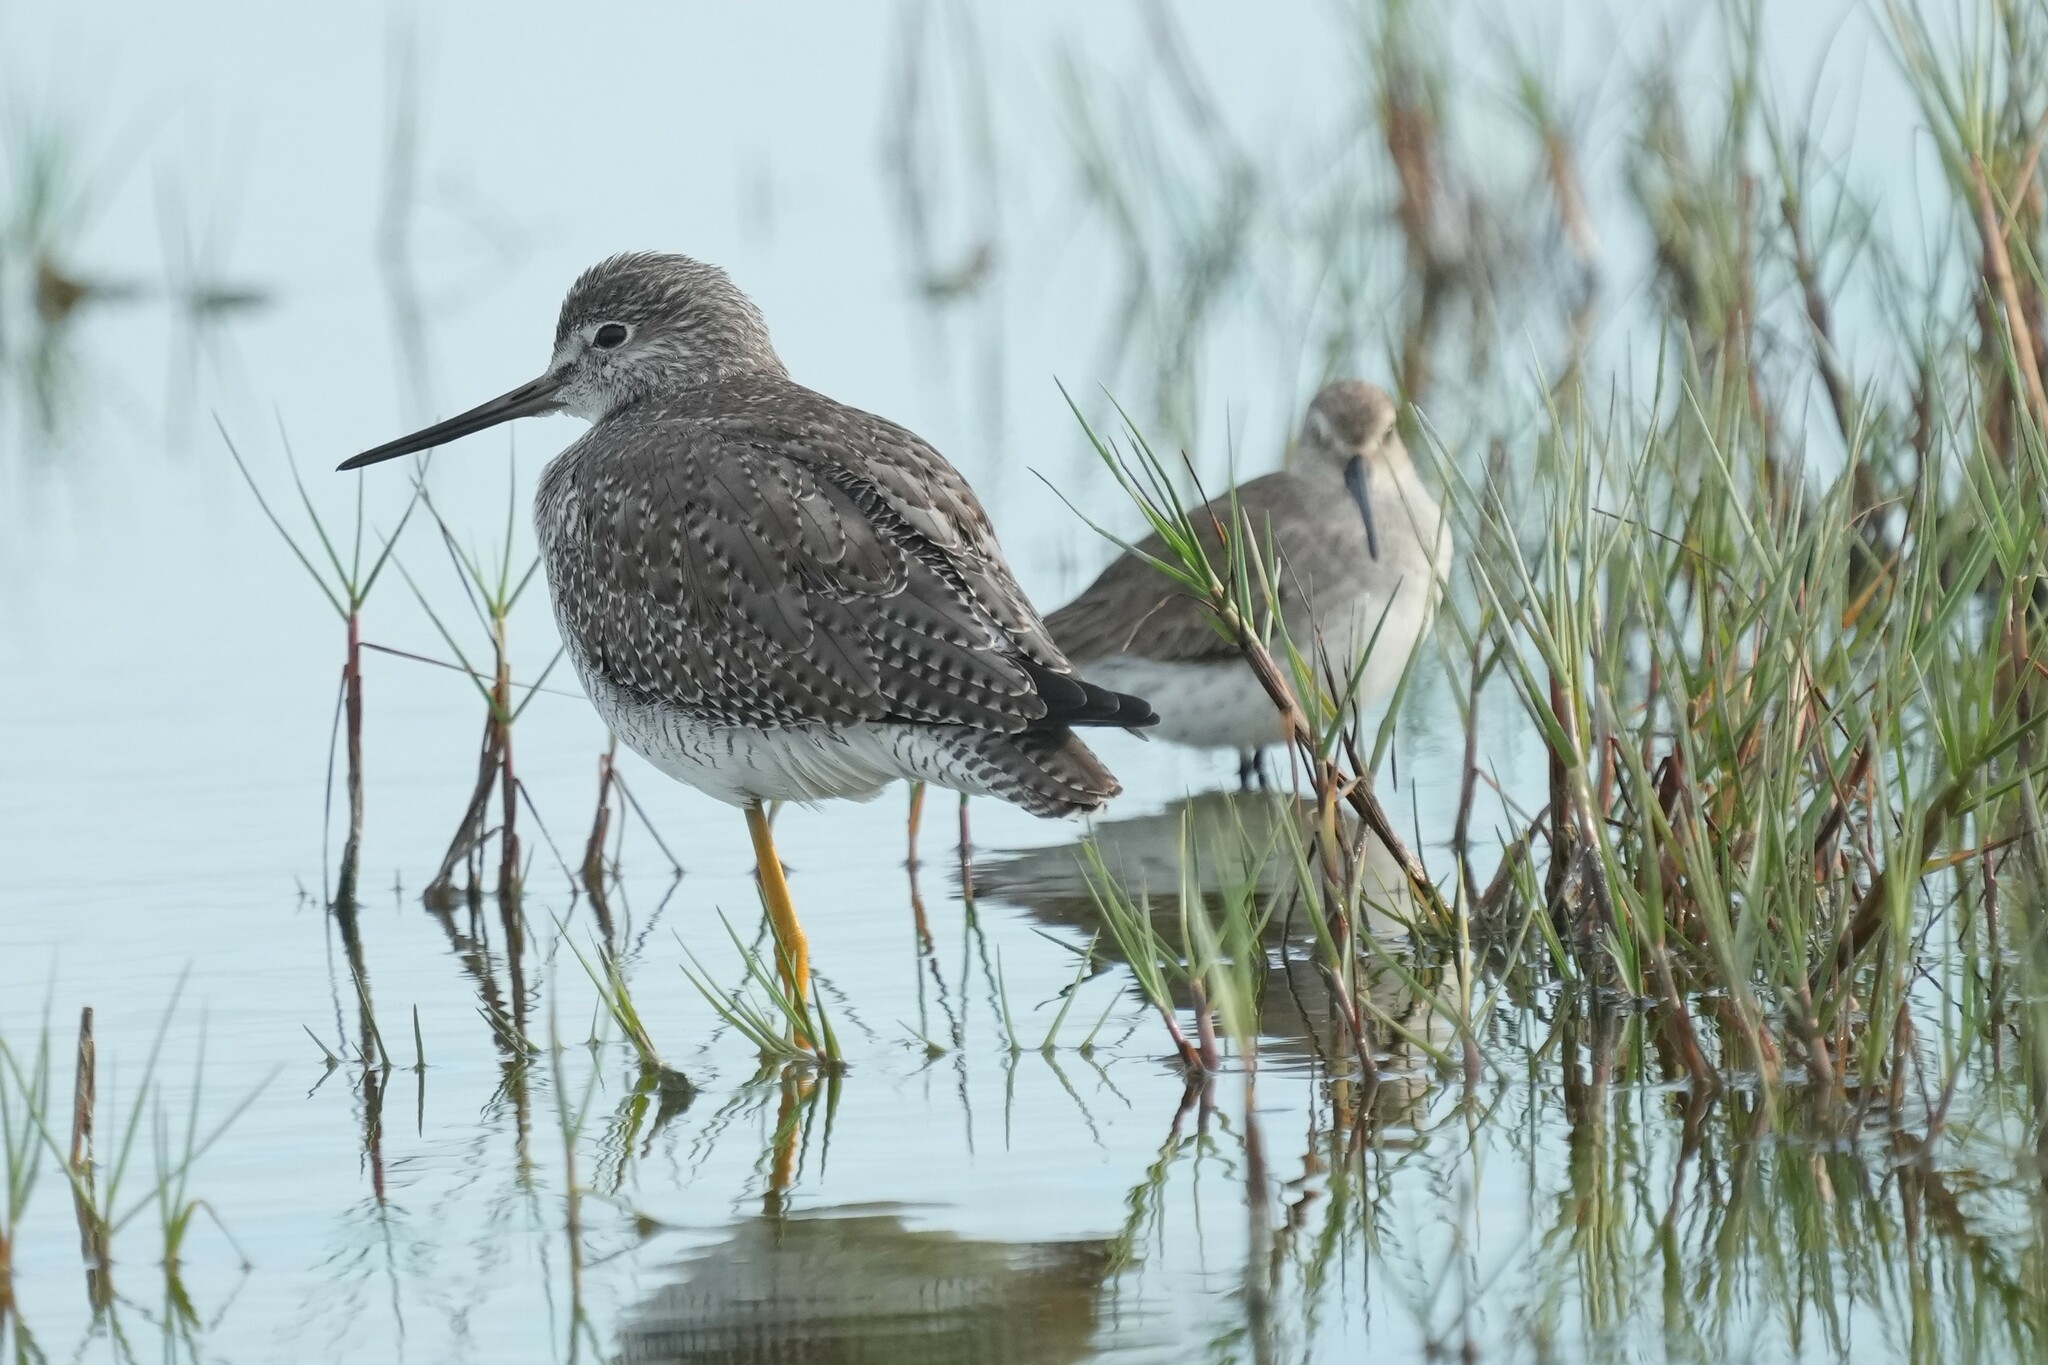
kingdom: Animalia
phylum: Chordata
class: Aves
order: Charadriiformes
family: Scolopacidae
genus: Tringa
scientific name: Tringa melanoleuca
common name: Greater yellowlegs
